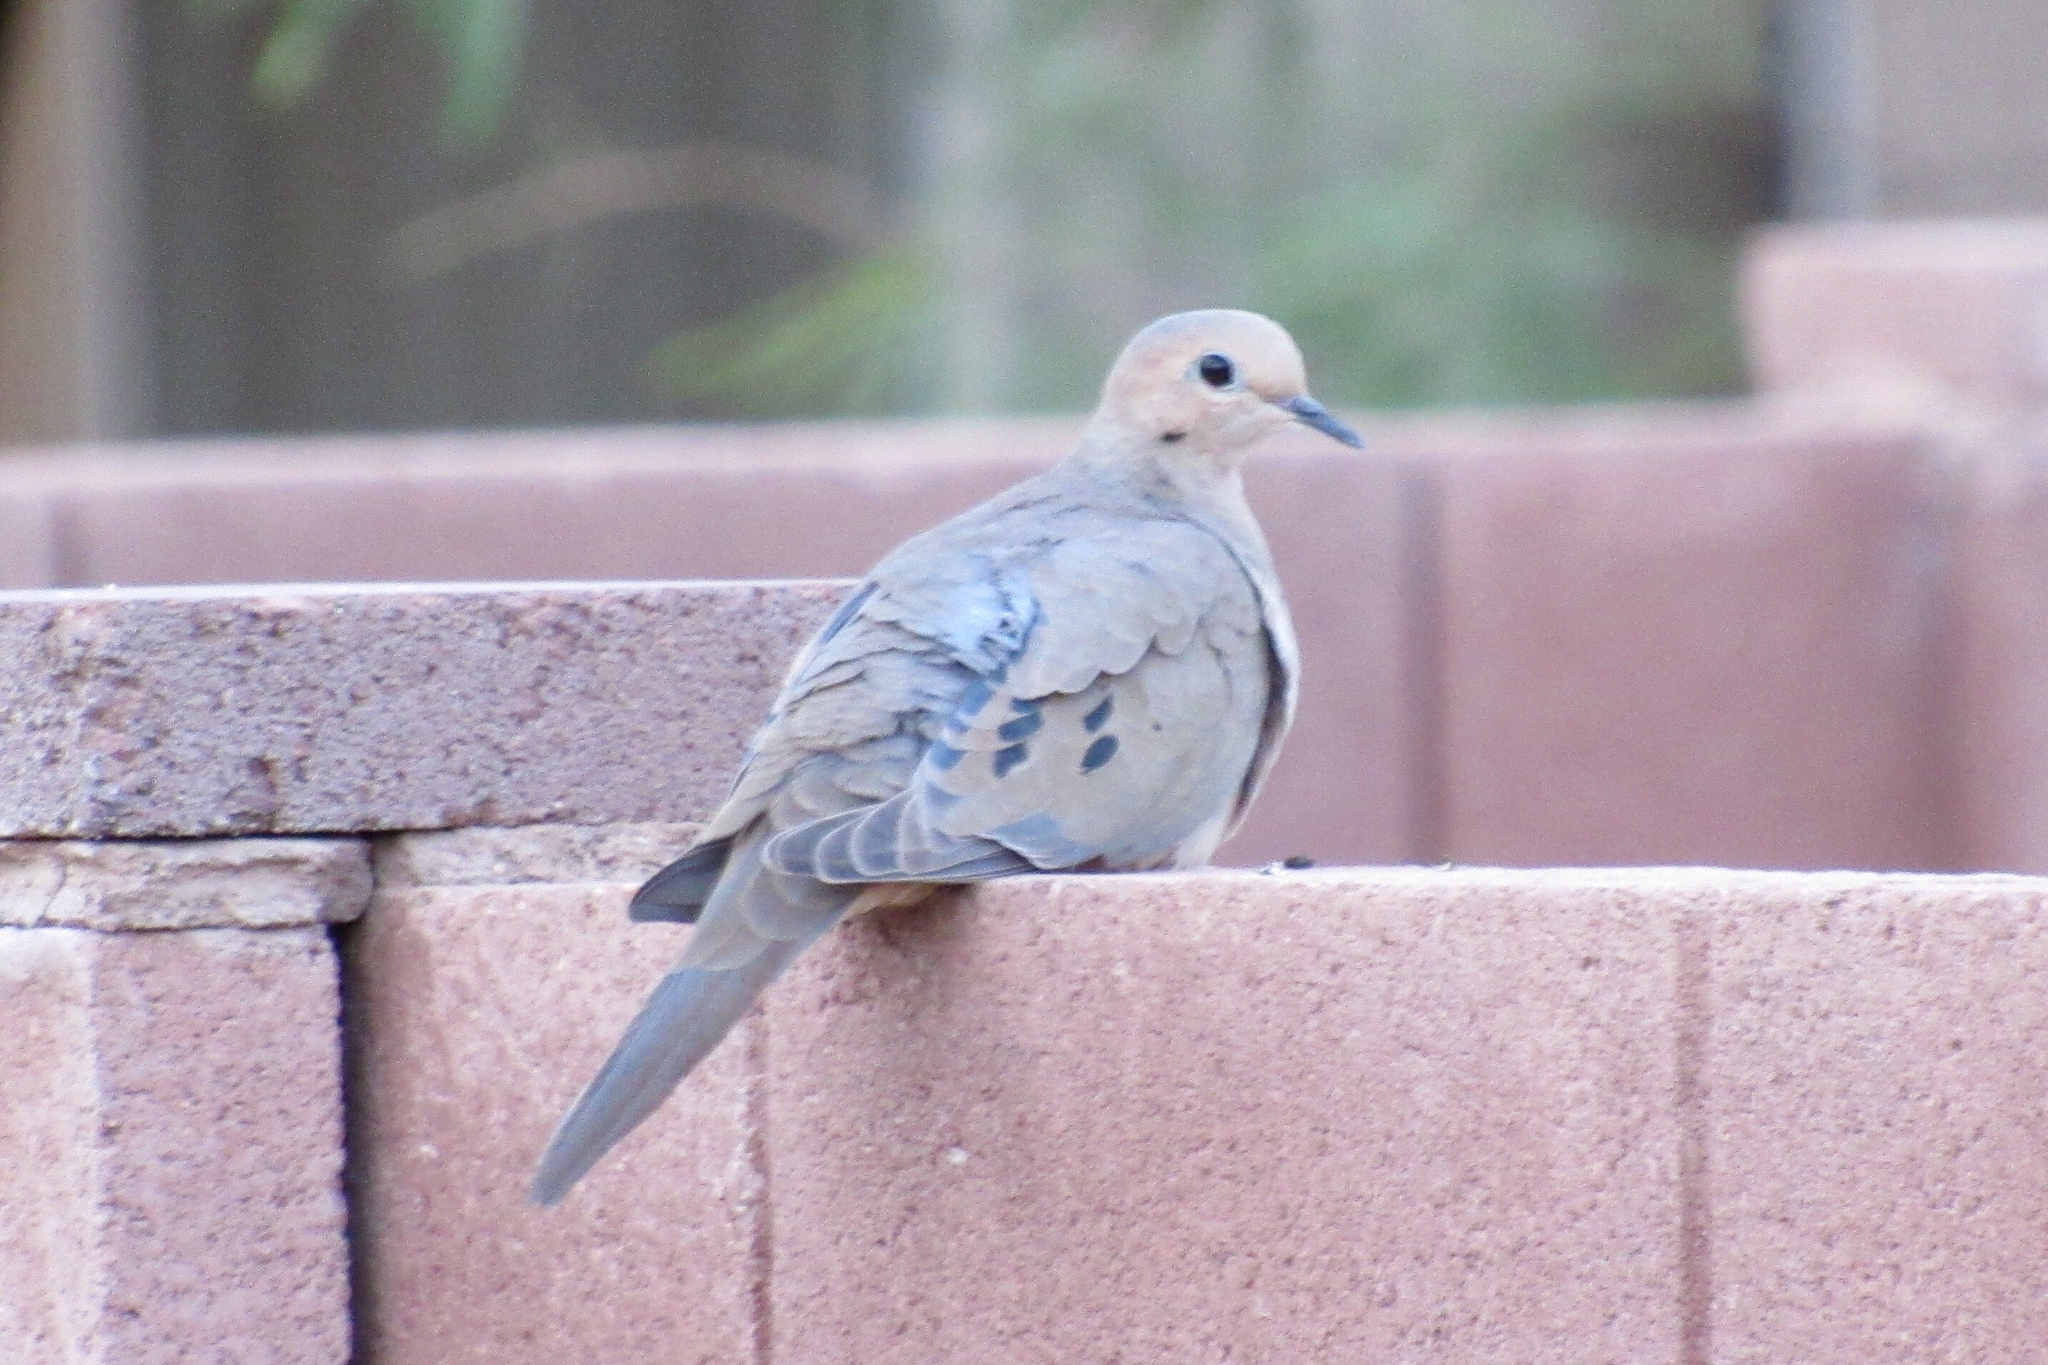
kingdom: Animalia
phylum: Chordata
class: Aves
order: Columbiformes
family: Columbidae
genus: Zenaida
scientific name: Zenaida macroura
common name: Mourning dove
